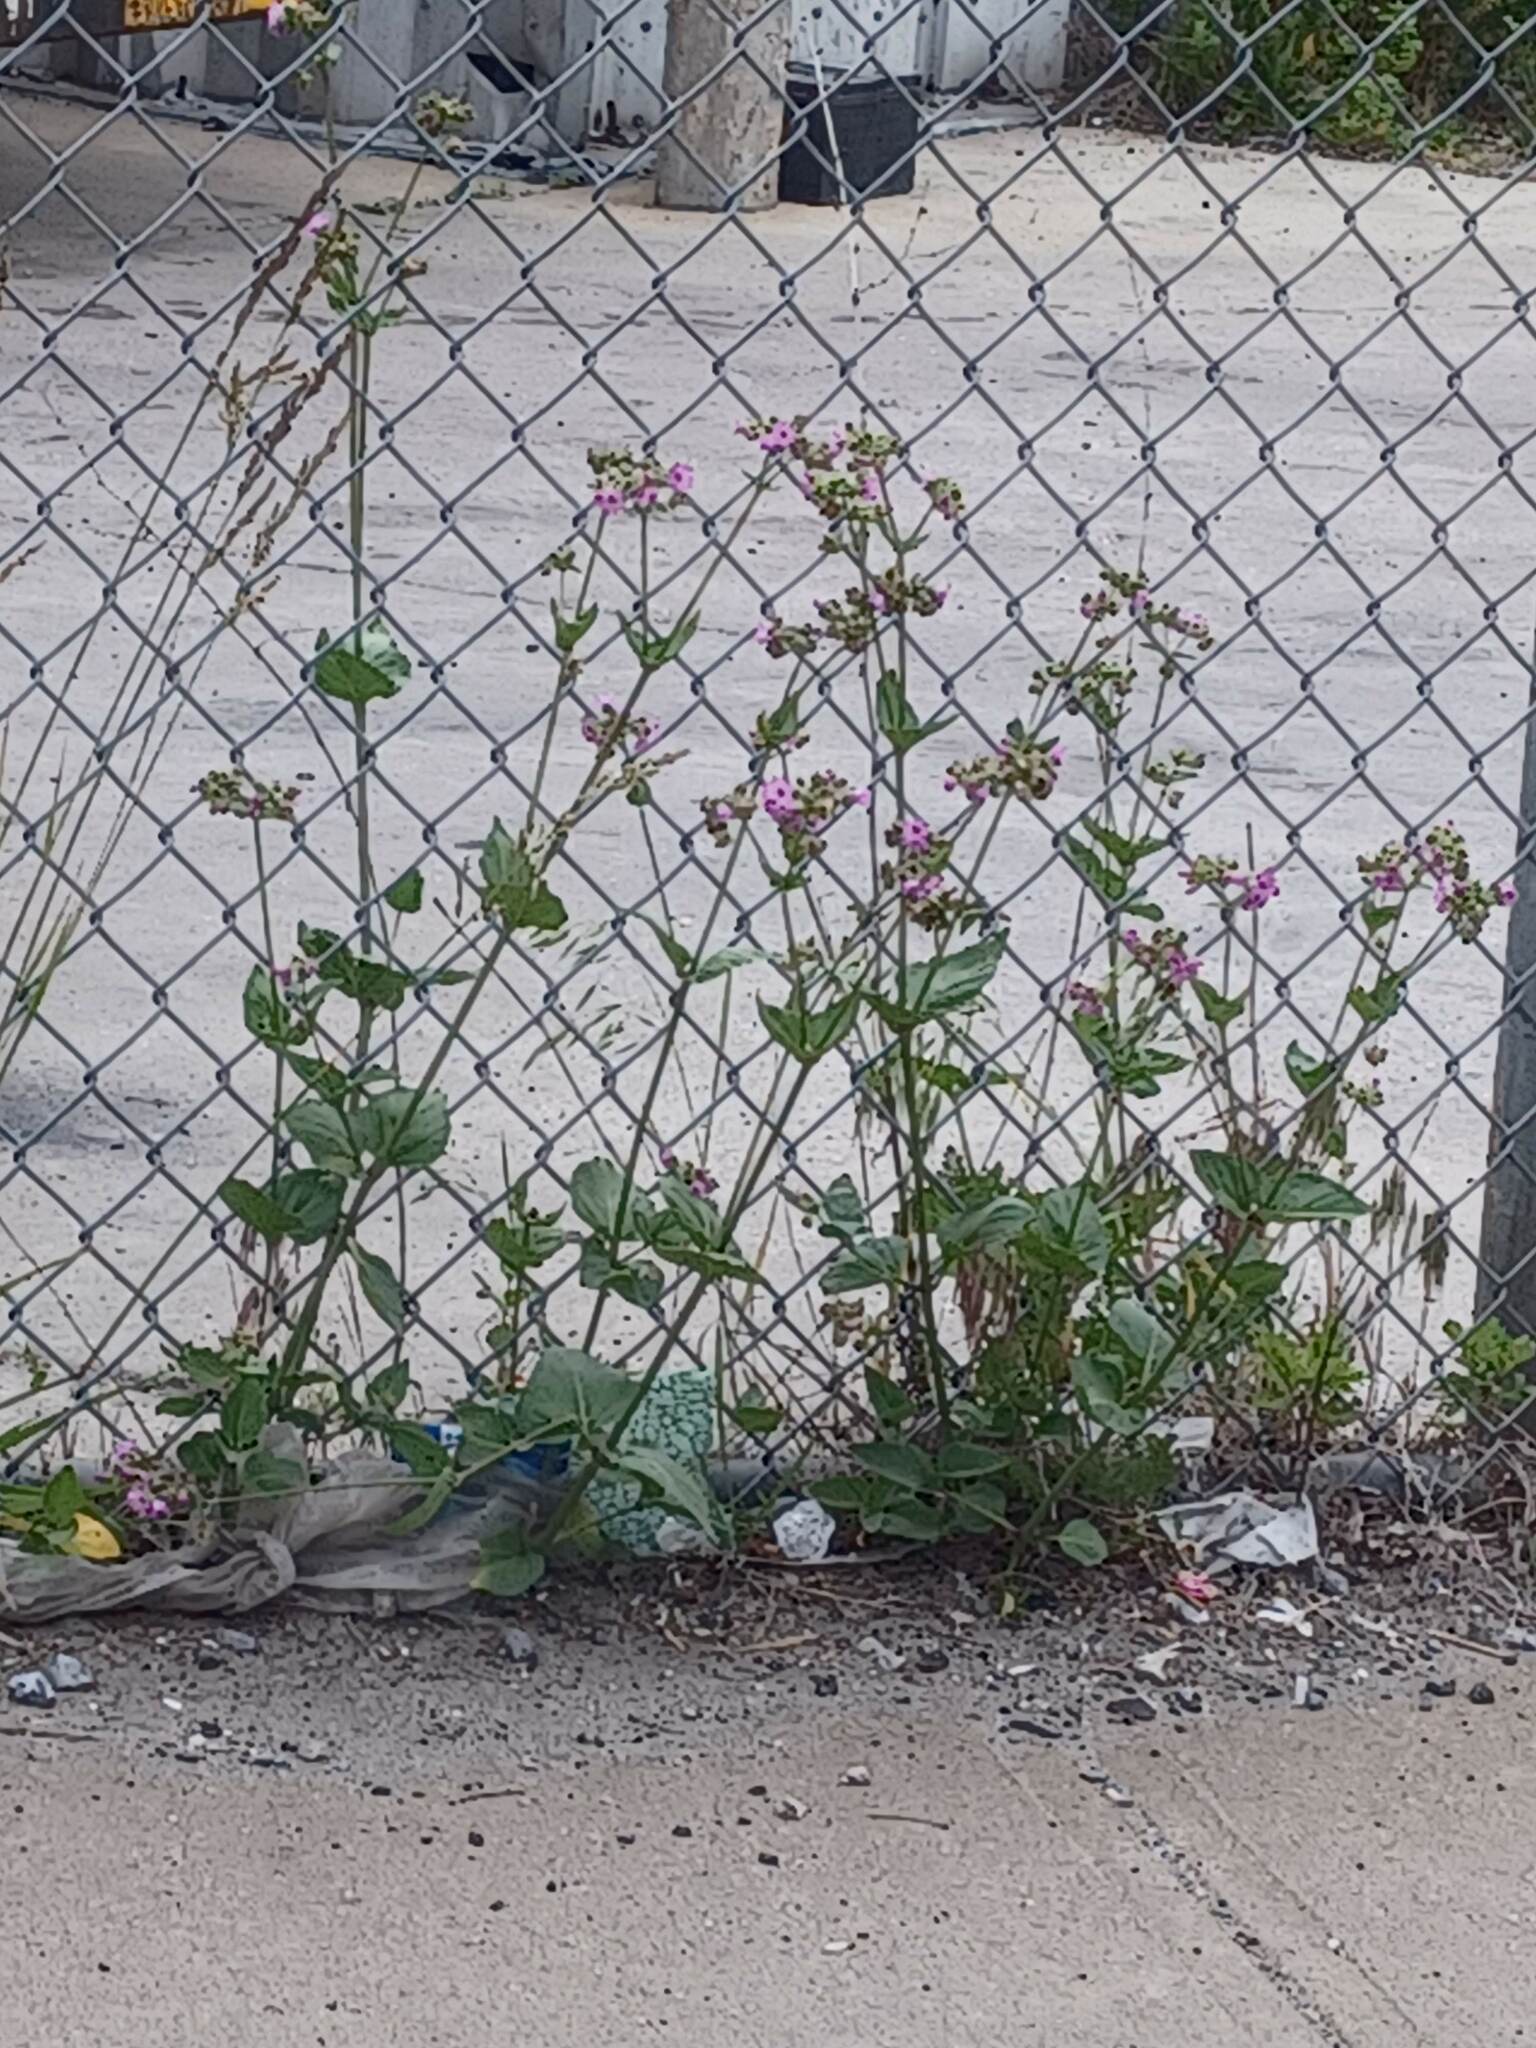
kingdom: Plantae
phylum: Tracheophyta
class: Magnoliopsida
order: Caryophyllales
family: Nyctaginaceae
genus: Mirabilis
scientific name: Mirabilis nyctaginea
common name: Umbrella wort
